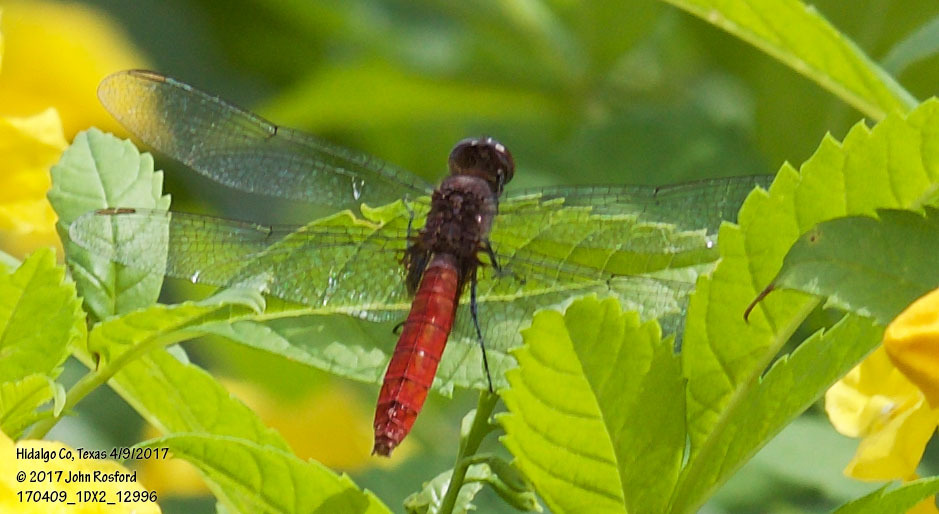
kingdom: Animalia
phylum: Arthropoda
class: Insecta
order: Odonata
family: Libellulidae
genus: Planiplax
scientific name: Planiplax sanguiniventris
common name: Mexican scarlet-tail
